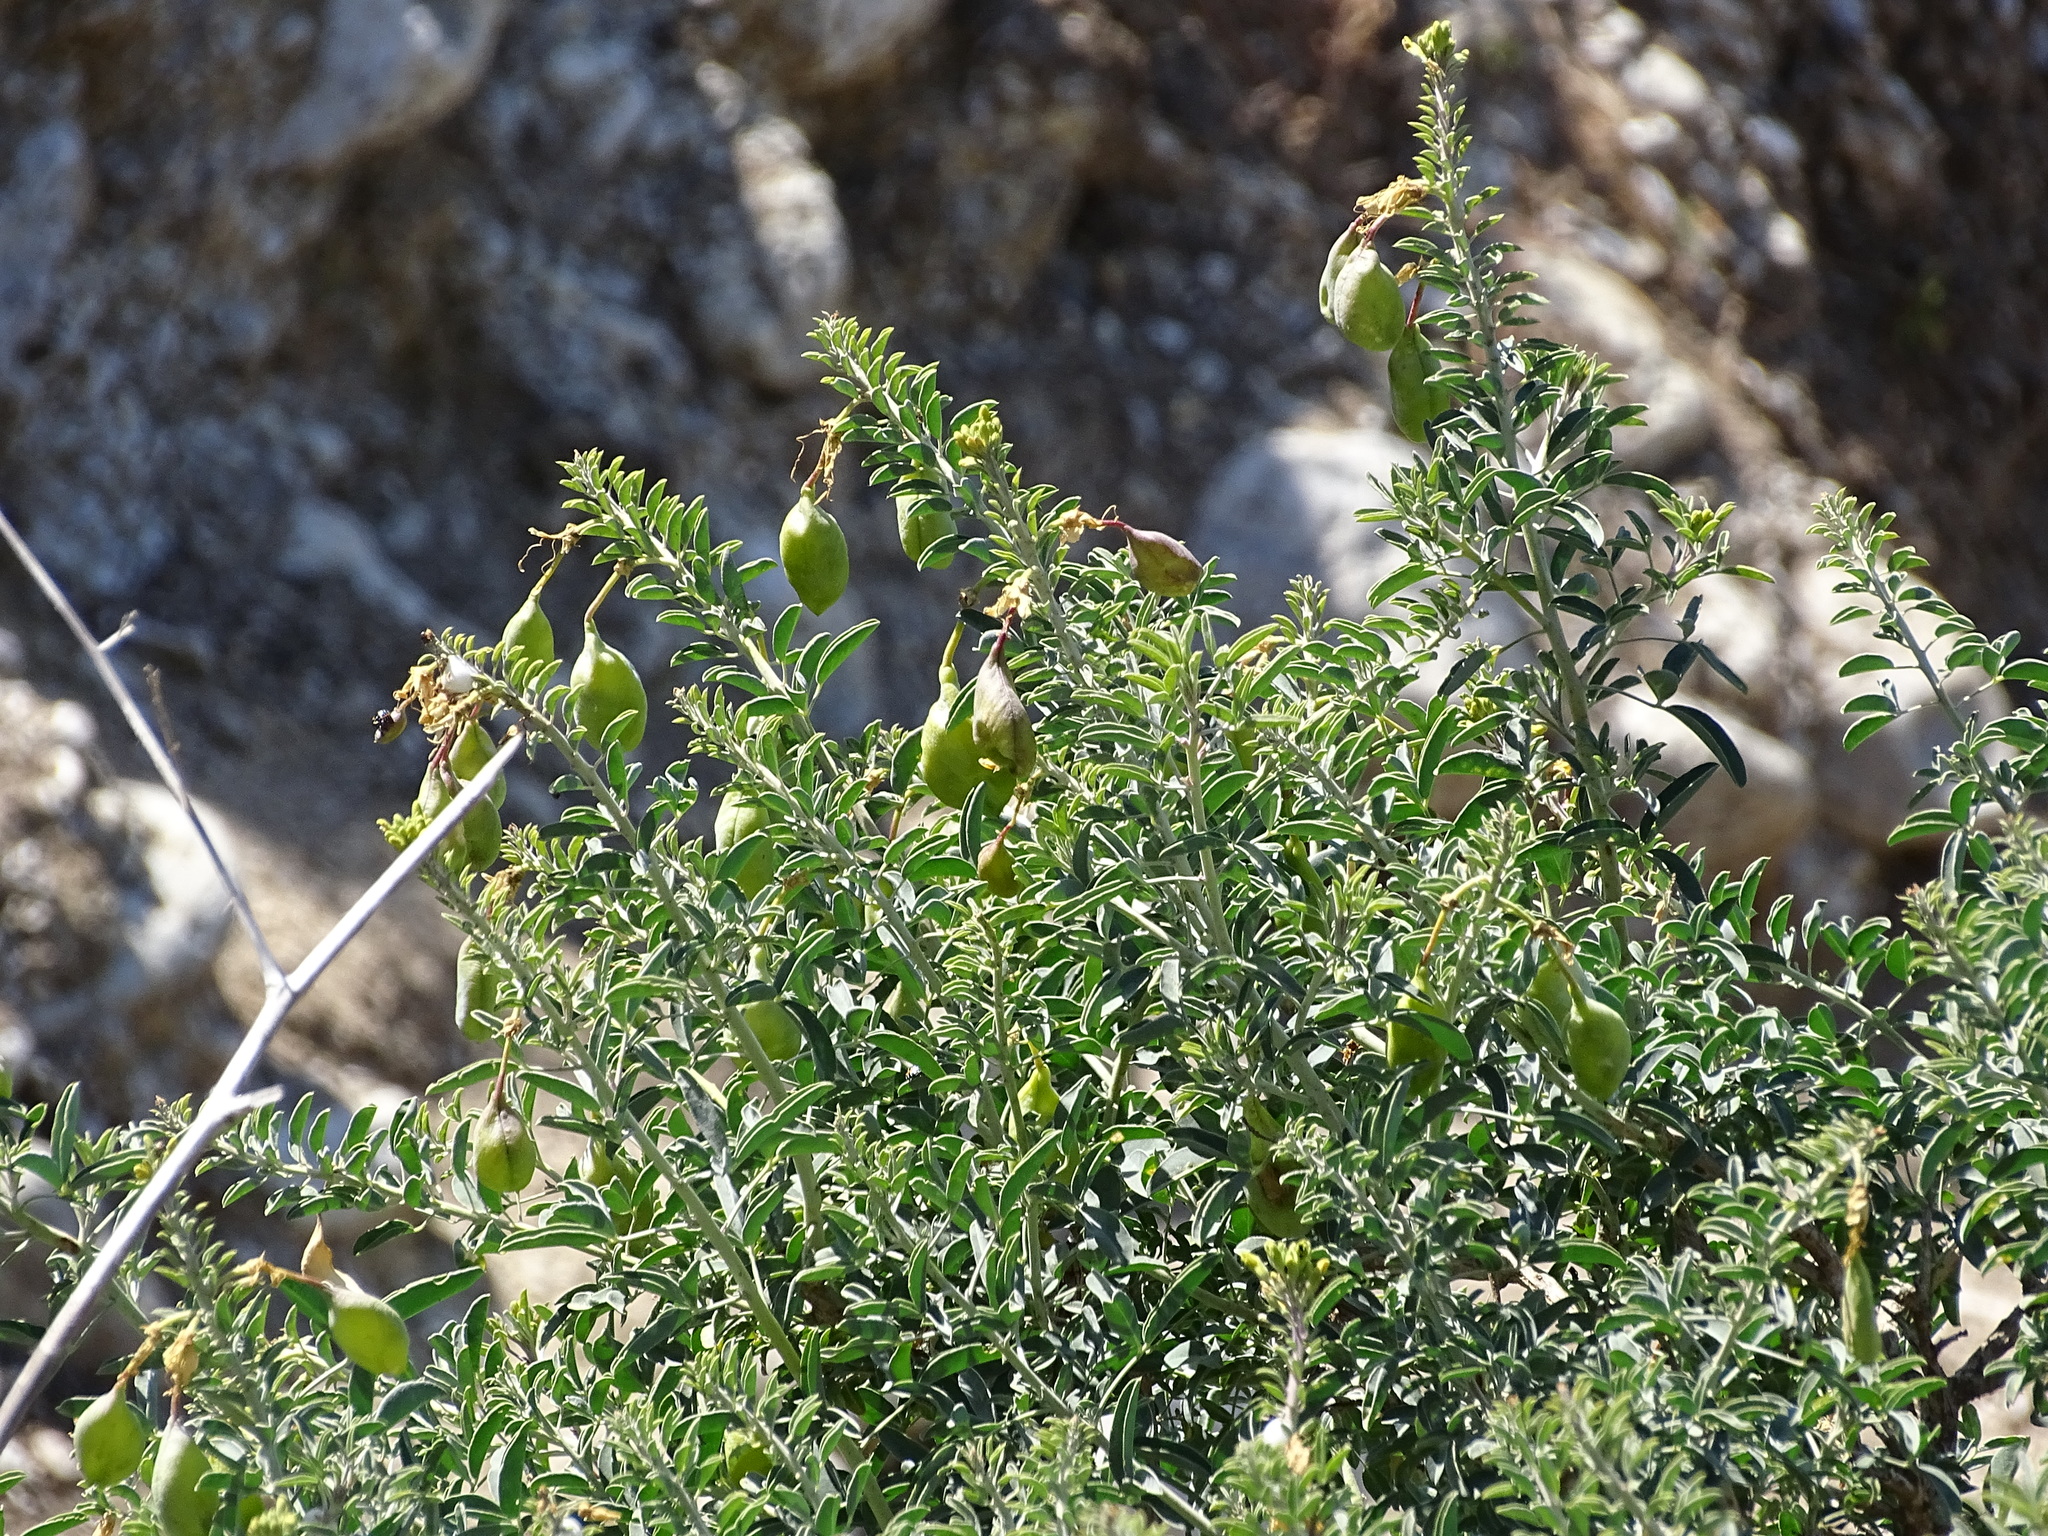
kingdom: Plantae
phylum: Tracheophyta
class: Magnoliopsida
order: Brassicales
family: Cleomaceae
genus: Cleomella
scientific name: Cleomella arborea
